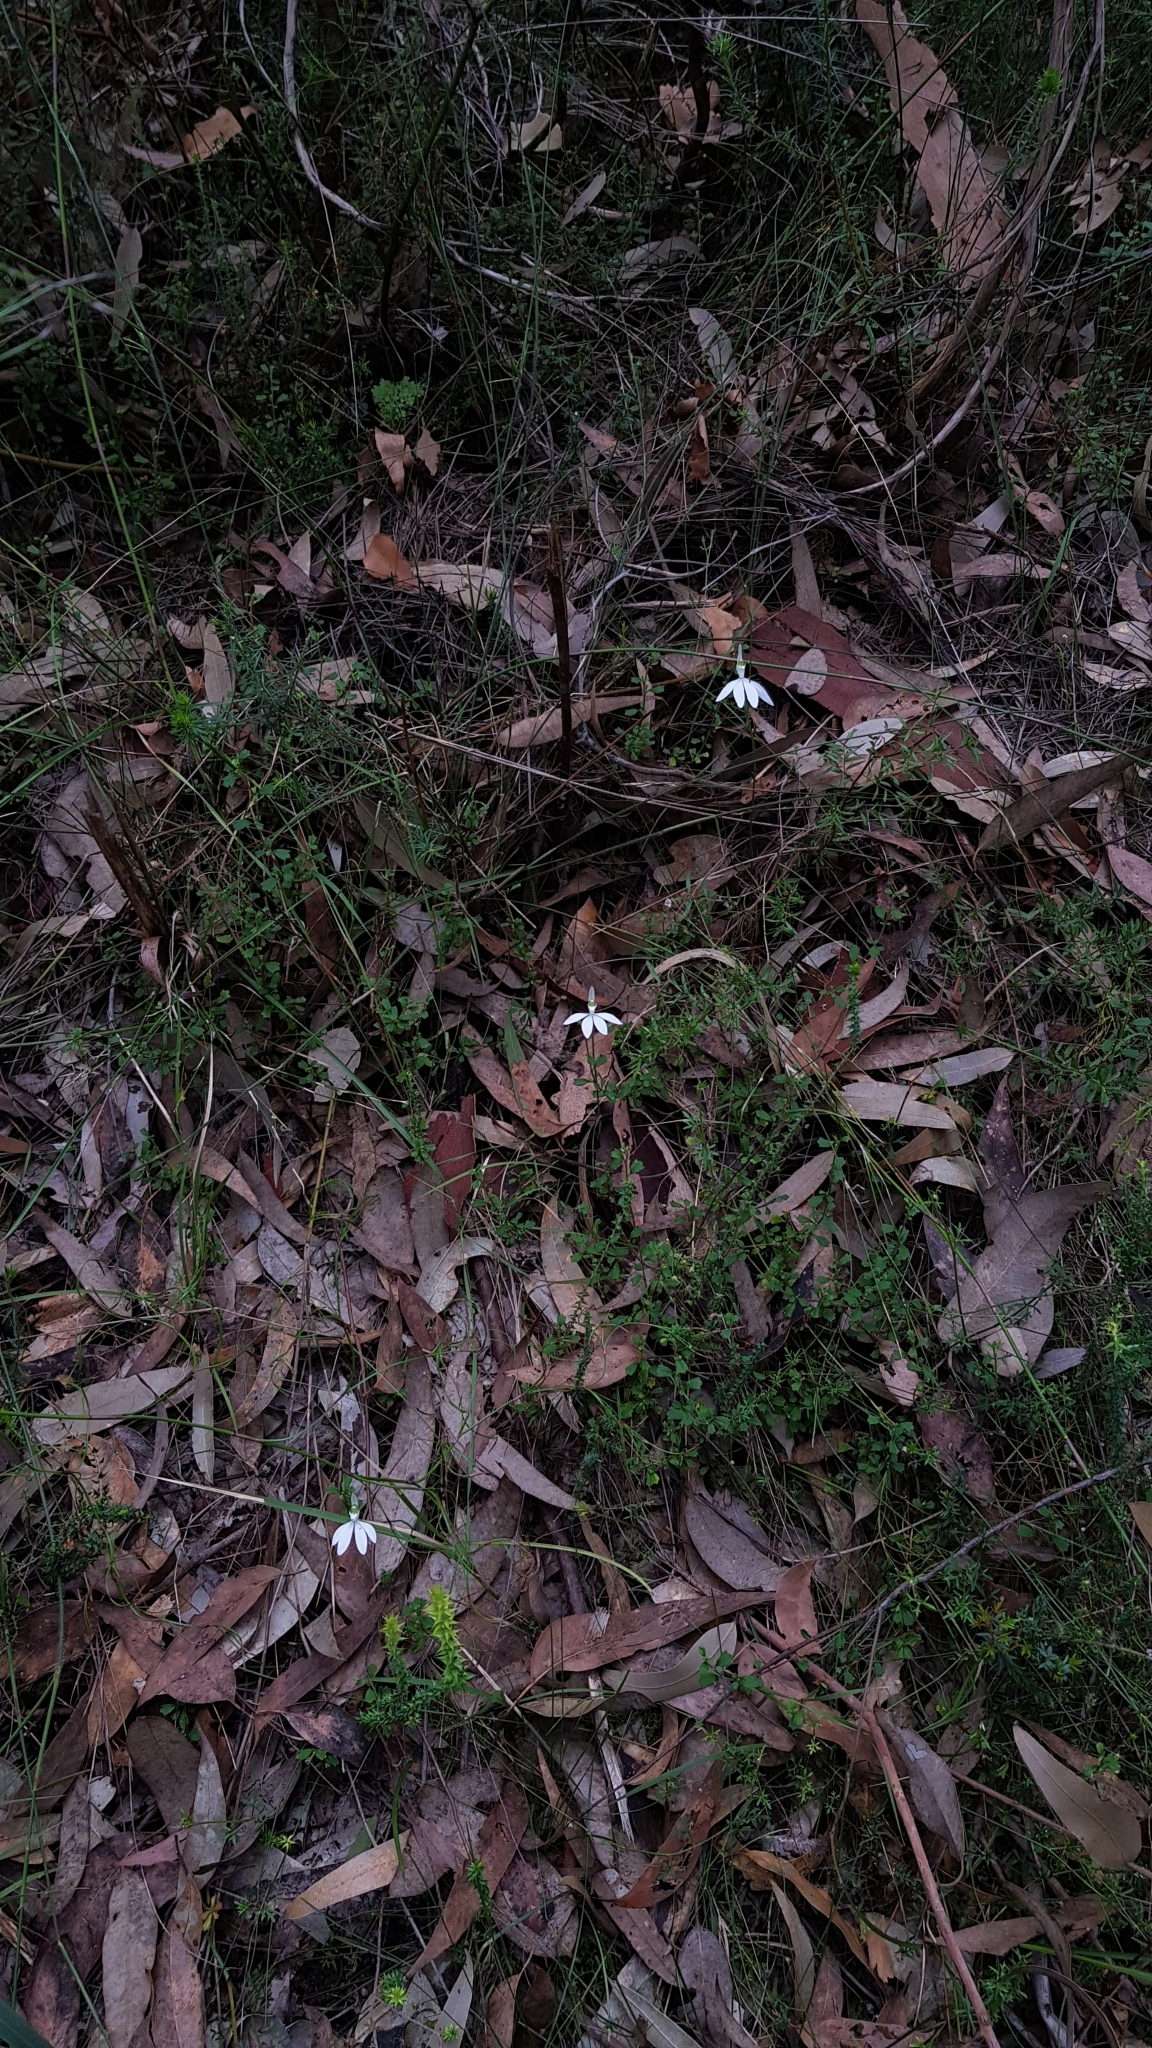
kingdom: Plantae
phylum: Tracheophyta
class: Liliopsida
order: Asparagales
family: Orchidaceae
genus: Caladenia
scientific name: Caladenia catenata
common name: White caladenia
